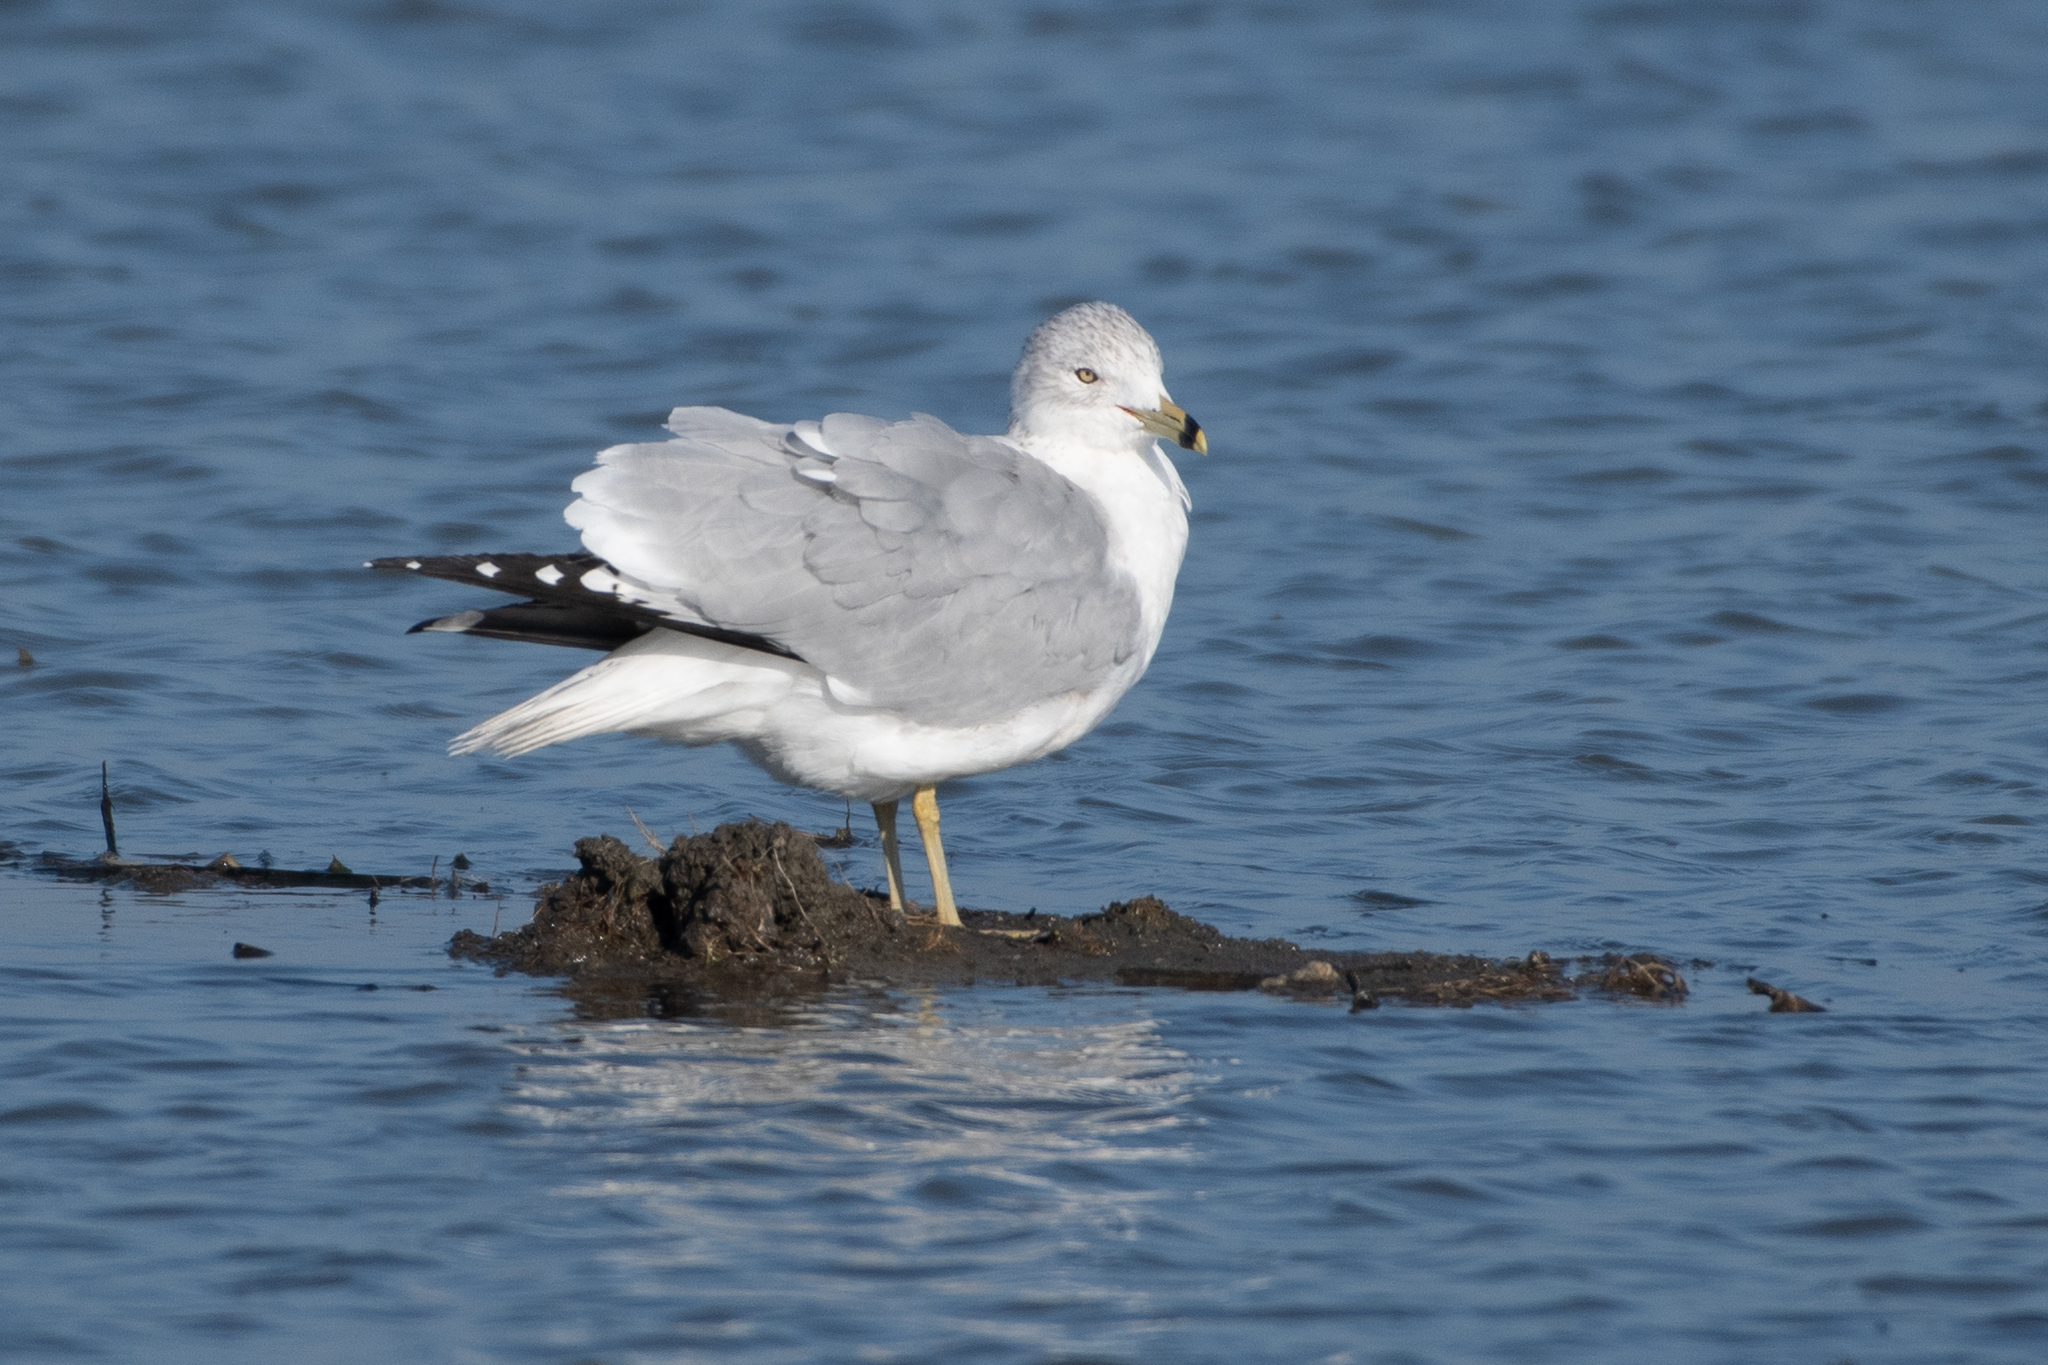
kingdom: Animalia
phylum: Chordata
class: Aves
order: Charadriiformes
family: Laridae
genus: Larus
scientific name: Larus delawarensis
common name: Ring-billed gull
